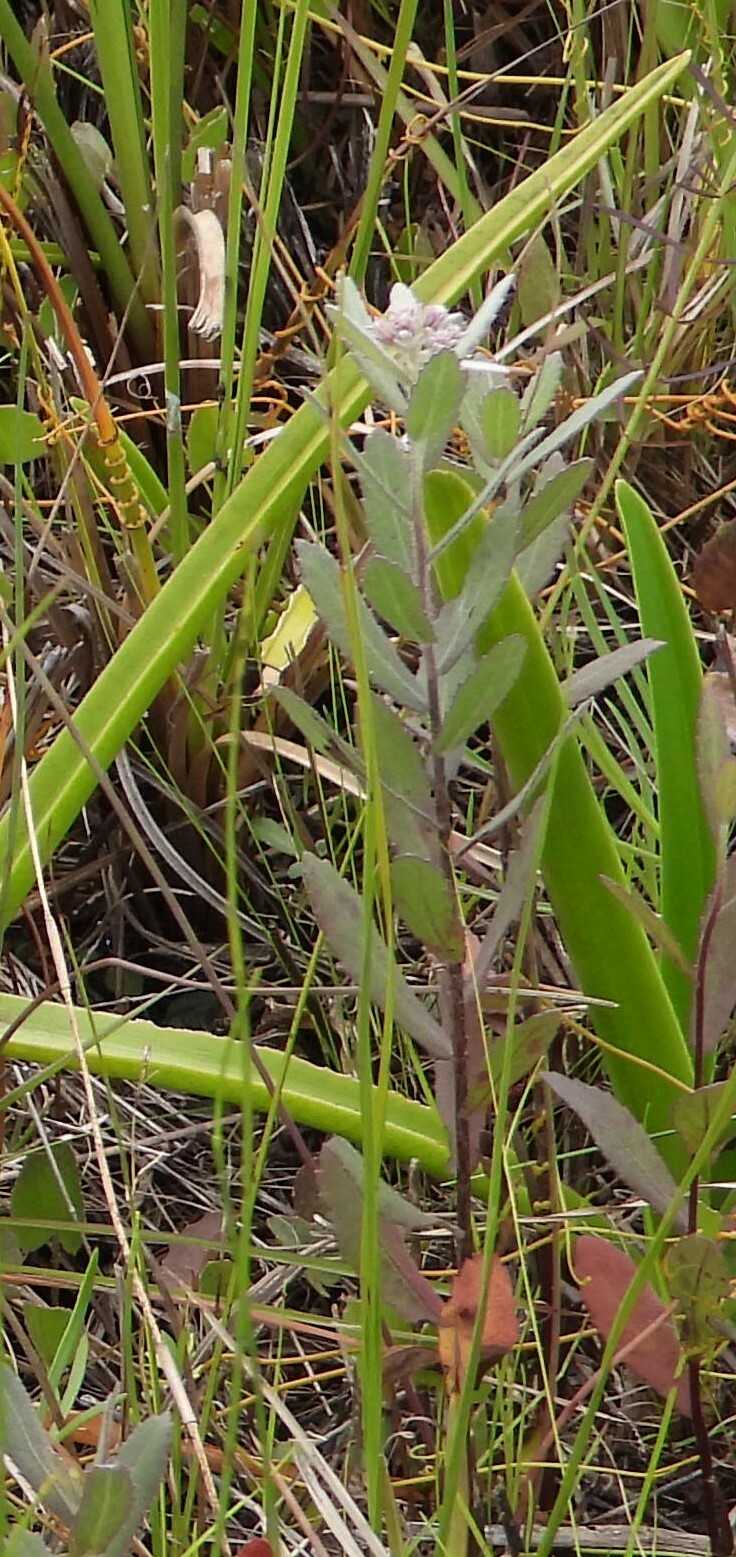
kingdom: Plantae
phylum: Tracheophyta
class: Magnoliopsida
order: Asterales
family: Asteraceae
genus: Pluchea
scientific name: Pluchea baccharis
